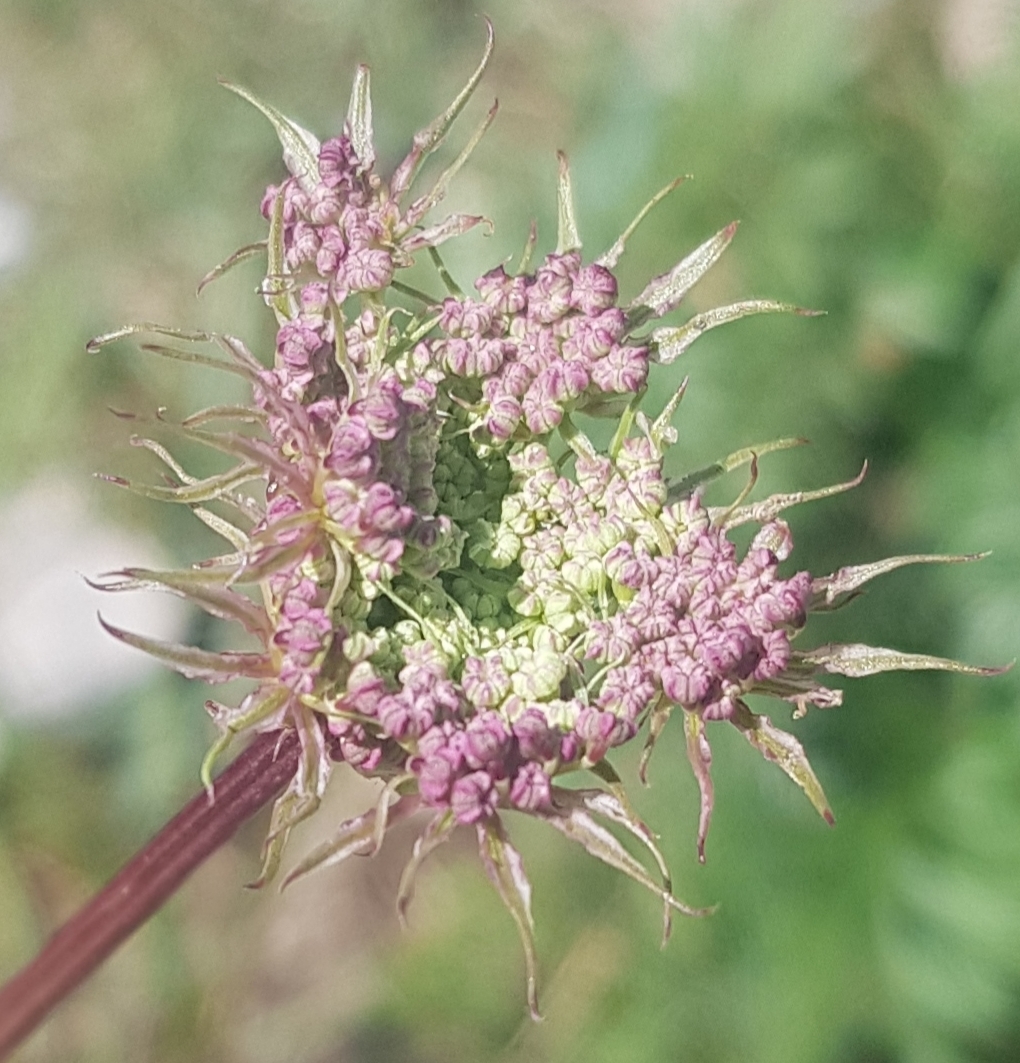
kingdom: Plantae
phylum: Tracheophyta
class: Magnoliopsida
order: Apiales
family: Apiaceae
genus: Kitagawia
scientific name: Kitagawia baicalensis
